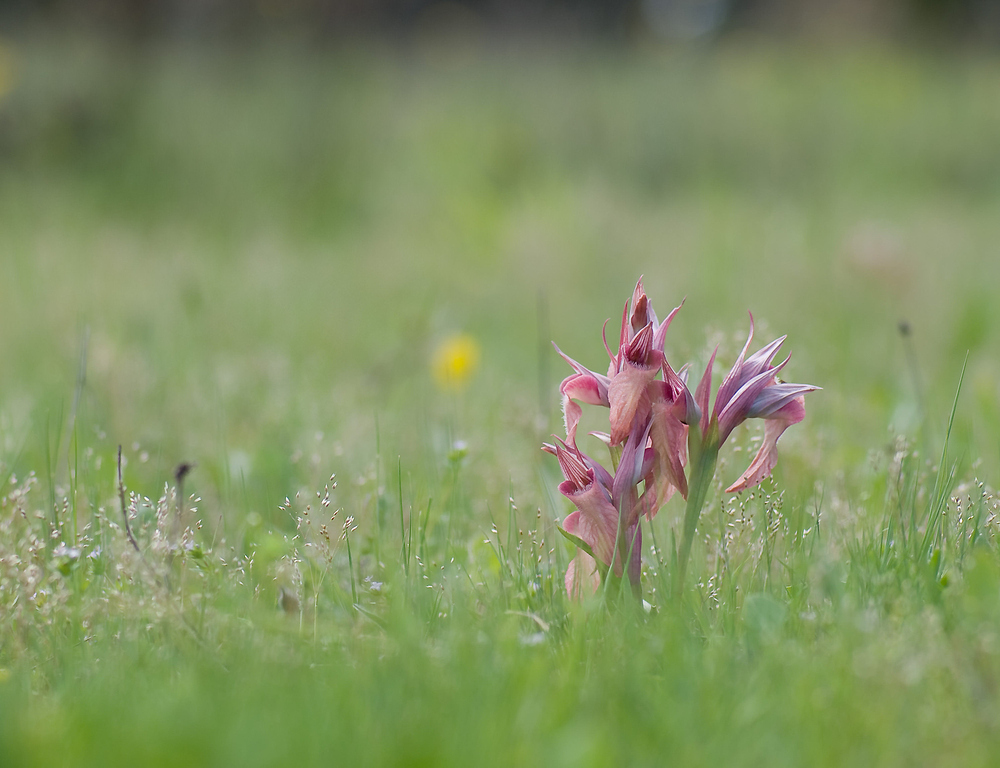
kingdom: Plantae
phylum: Tracheophyta
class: Liliopsida
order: Asparagales
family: Orchidaceae
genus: Serapias
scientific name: Serapias neglecta
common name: Neglected serapias
